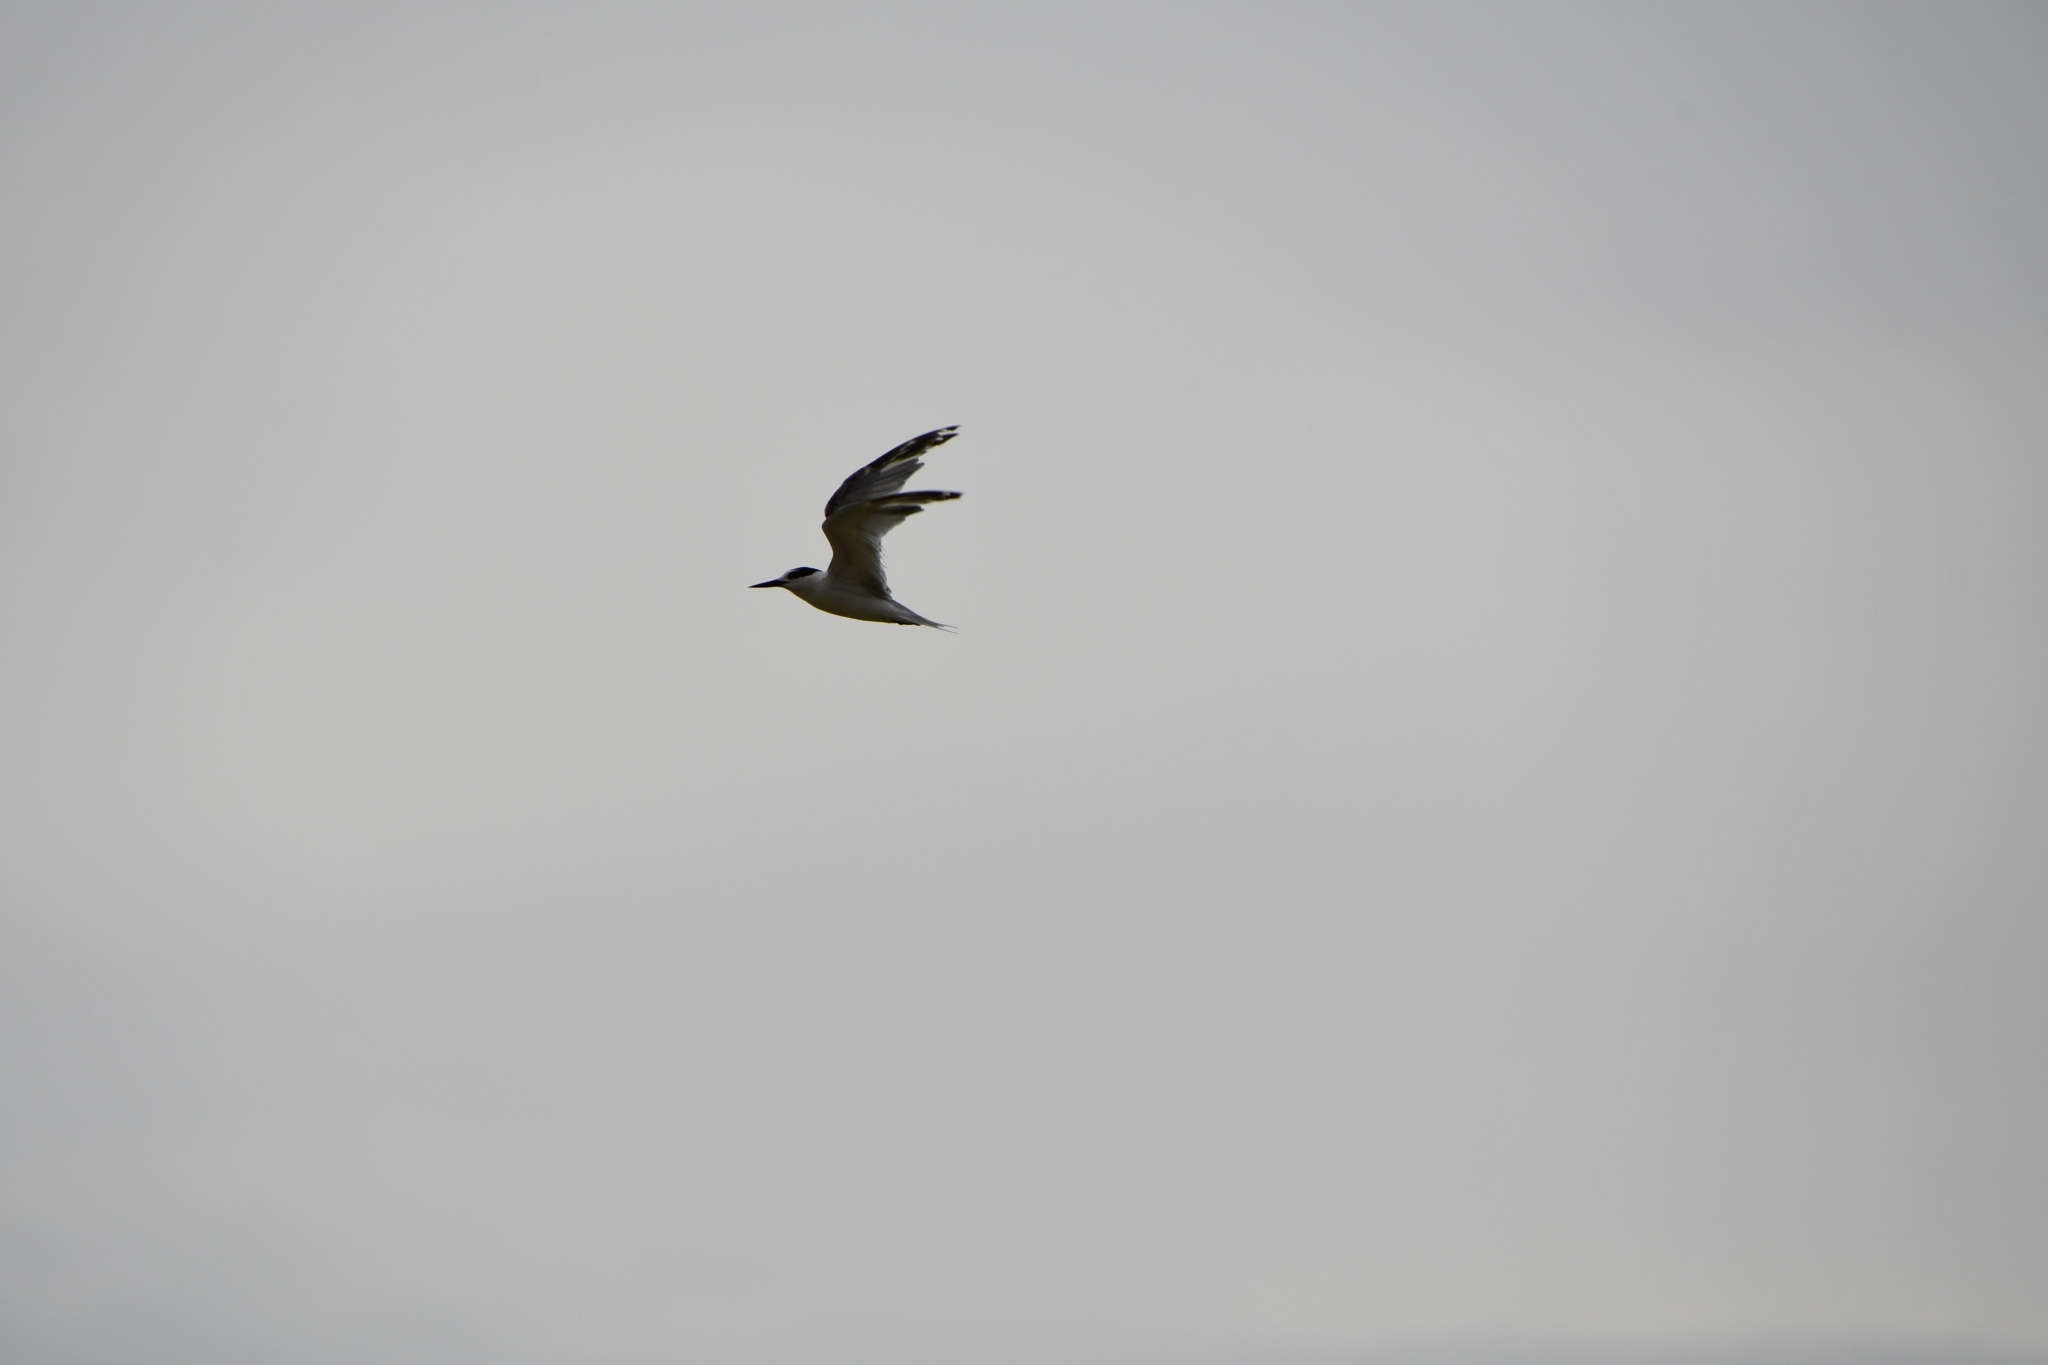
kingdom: Animalia
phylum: Chordata
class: Aves
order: Charadriiformes
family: Laridae
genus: Sternula
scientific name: Sternula albifrons
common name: Little tern
